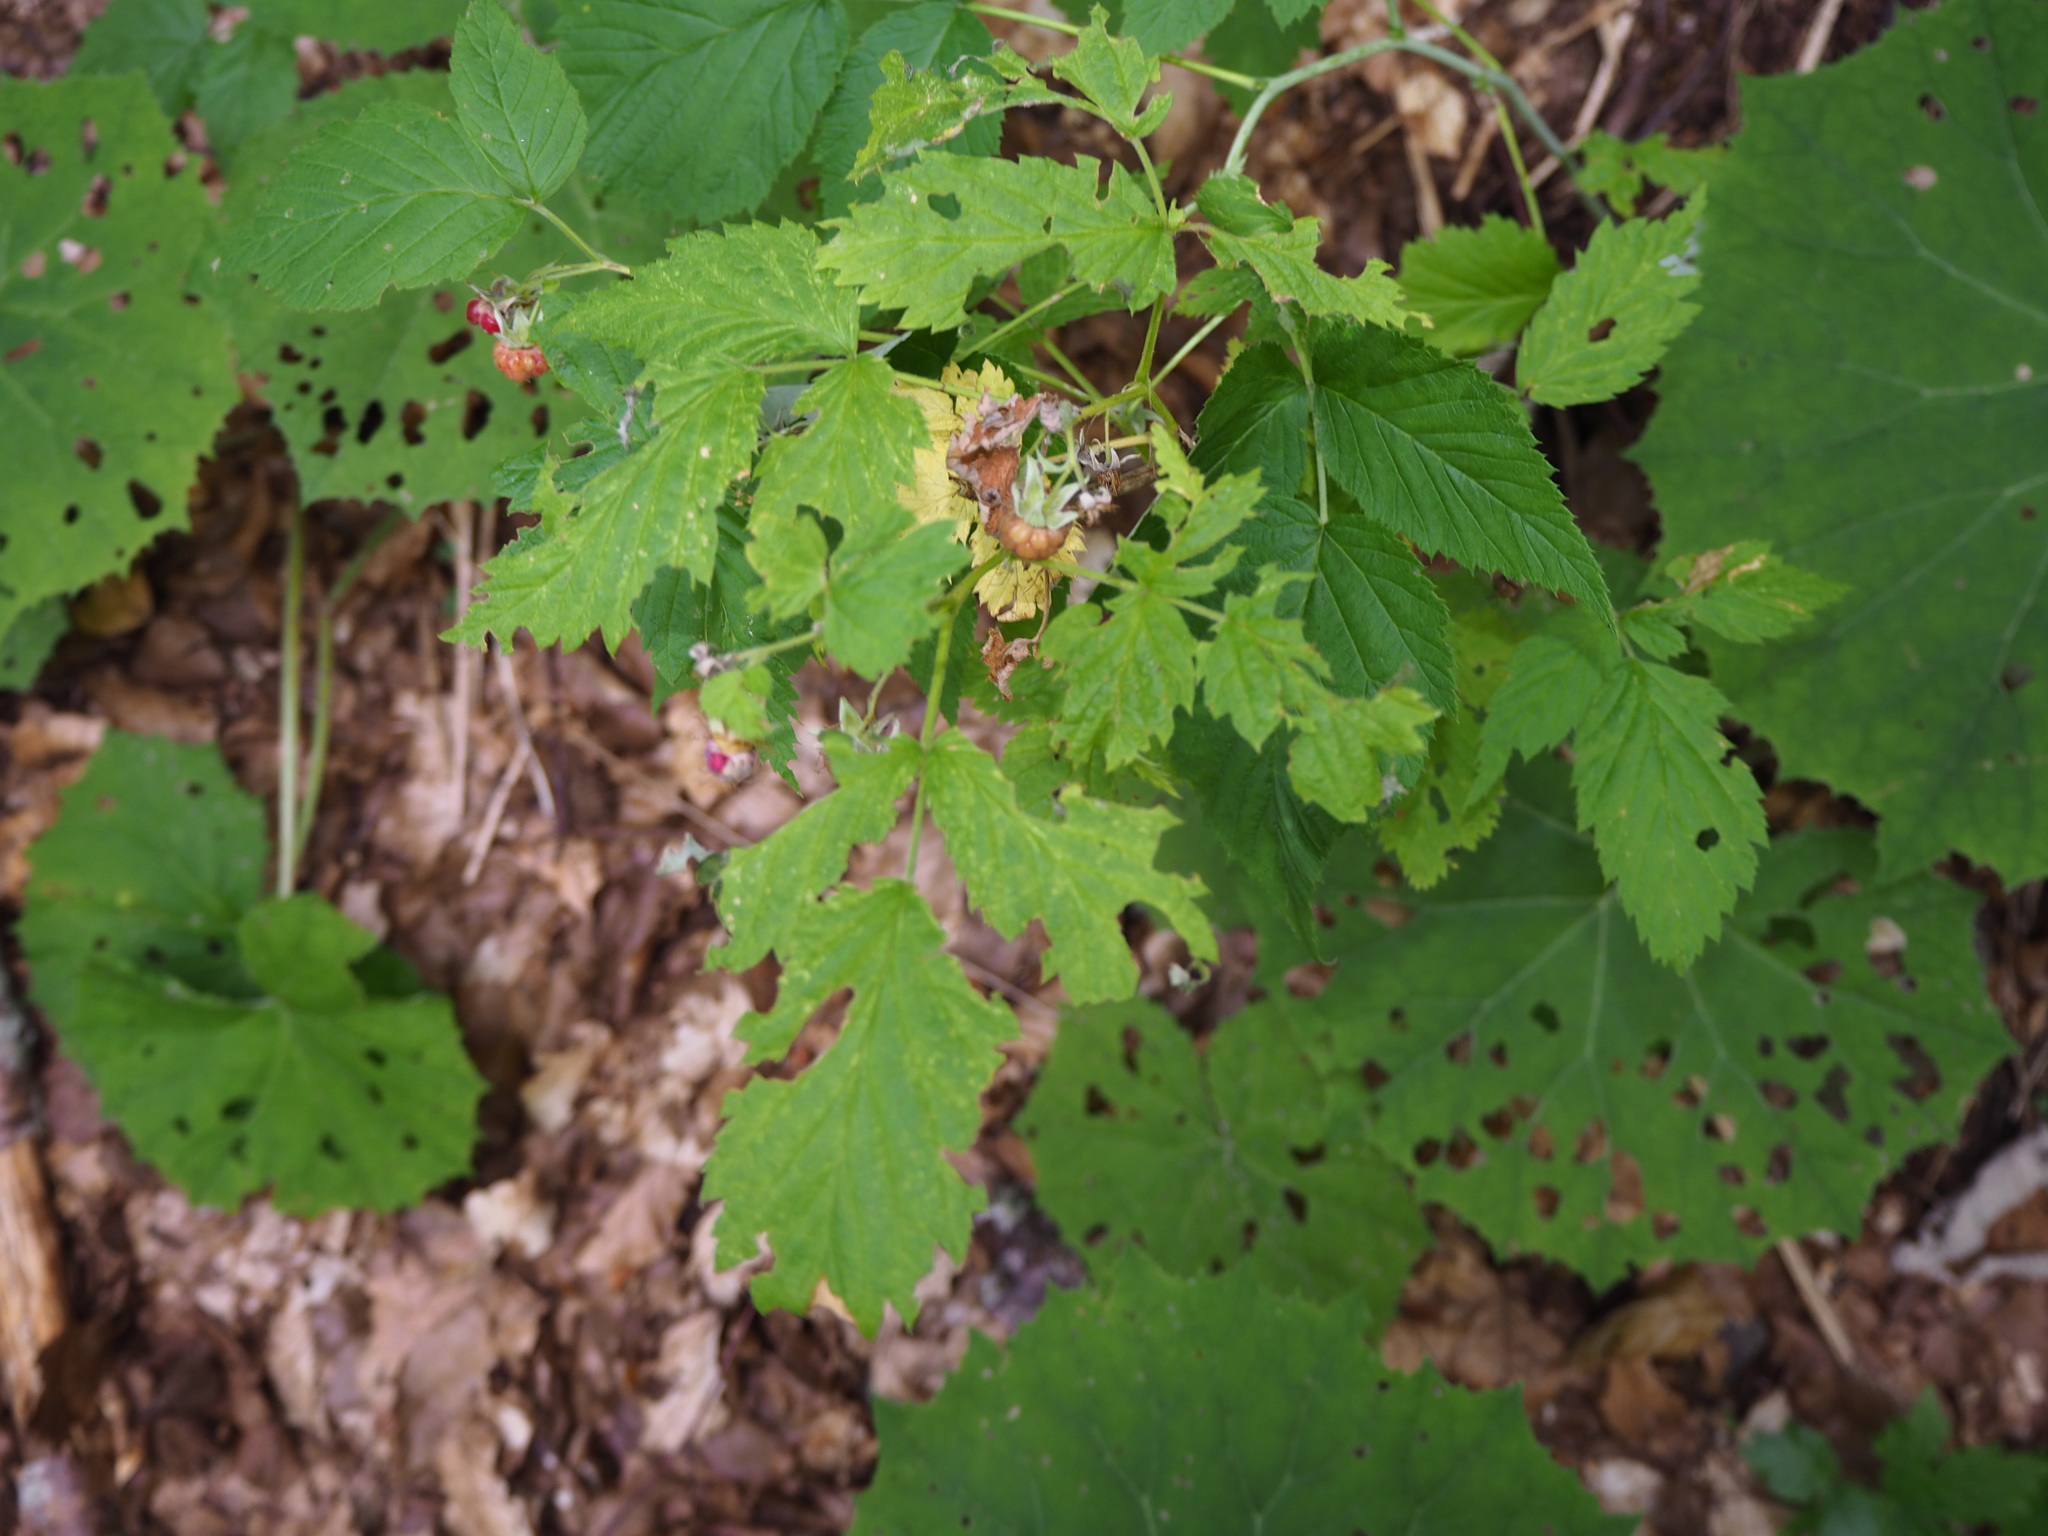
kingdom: Plantae
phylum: Tracheophyta
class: Magnoliopsida
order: Rosales
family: Rosaceae
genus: Rubus
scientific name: Rubus idaeus
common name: Raspberry
